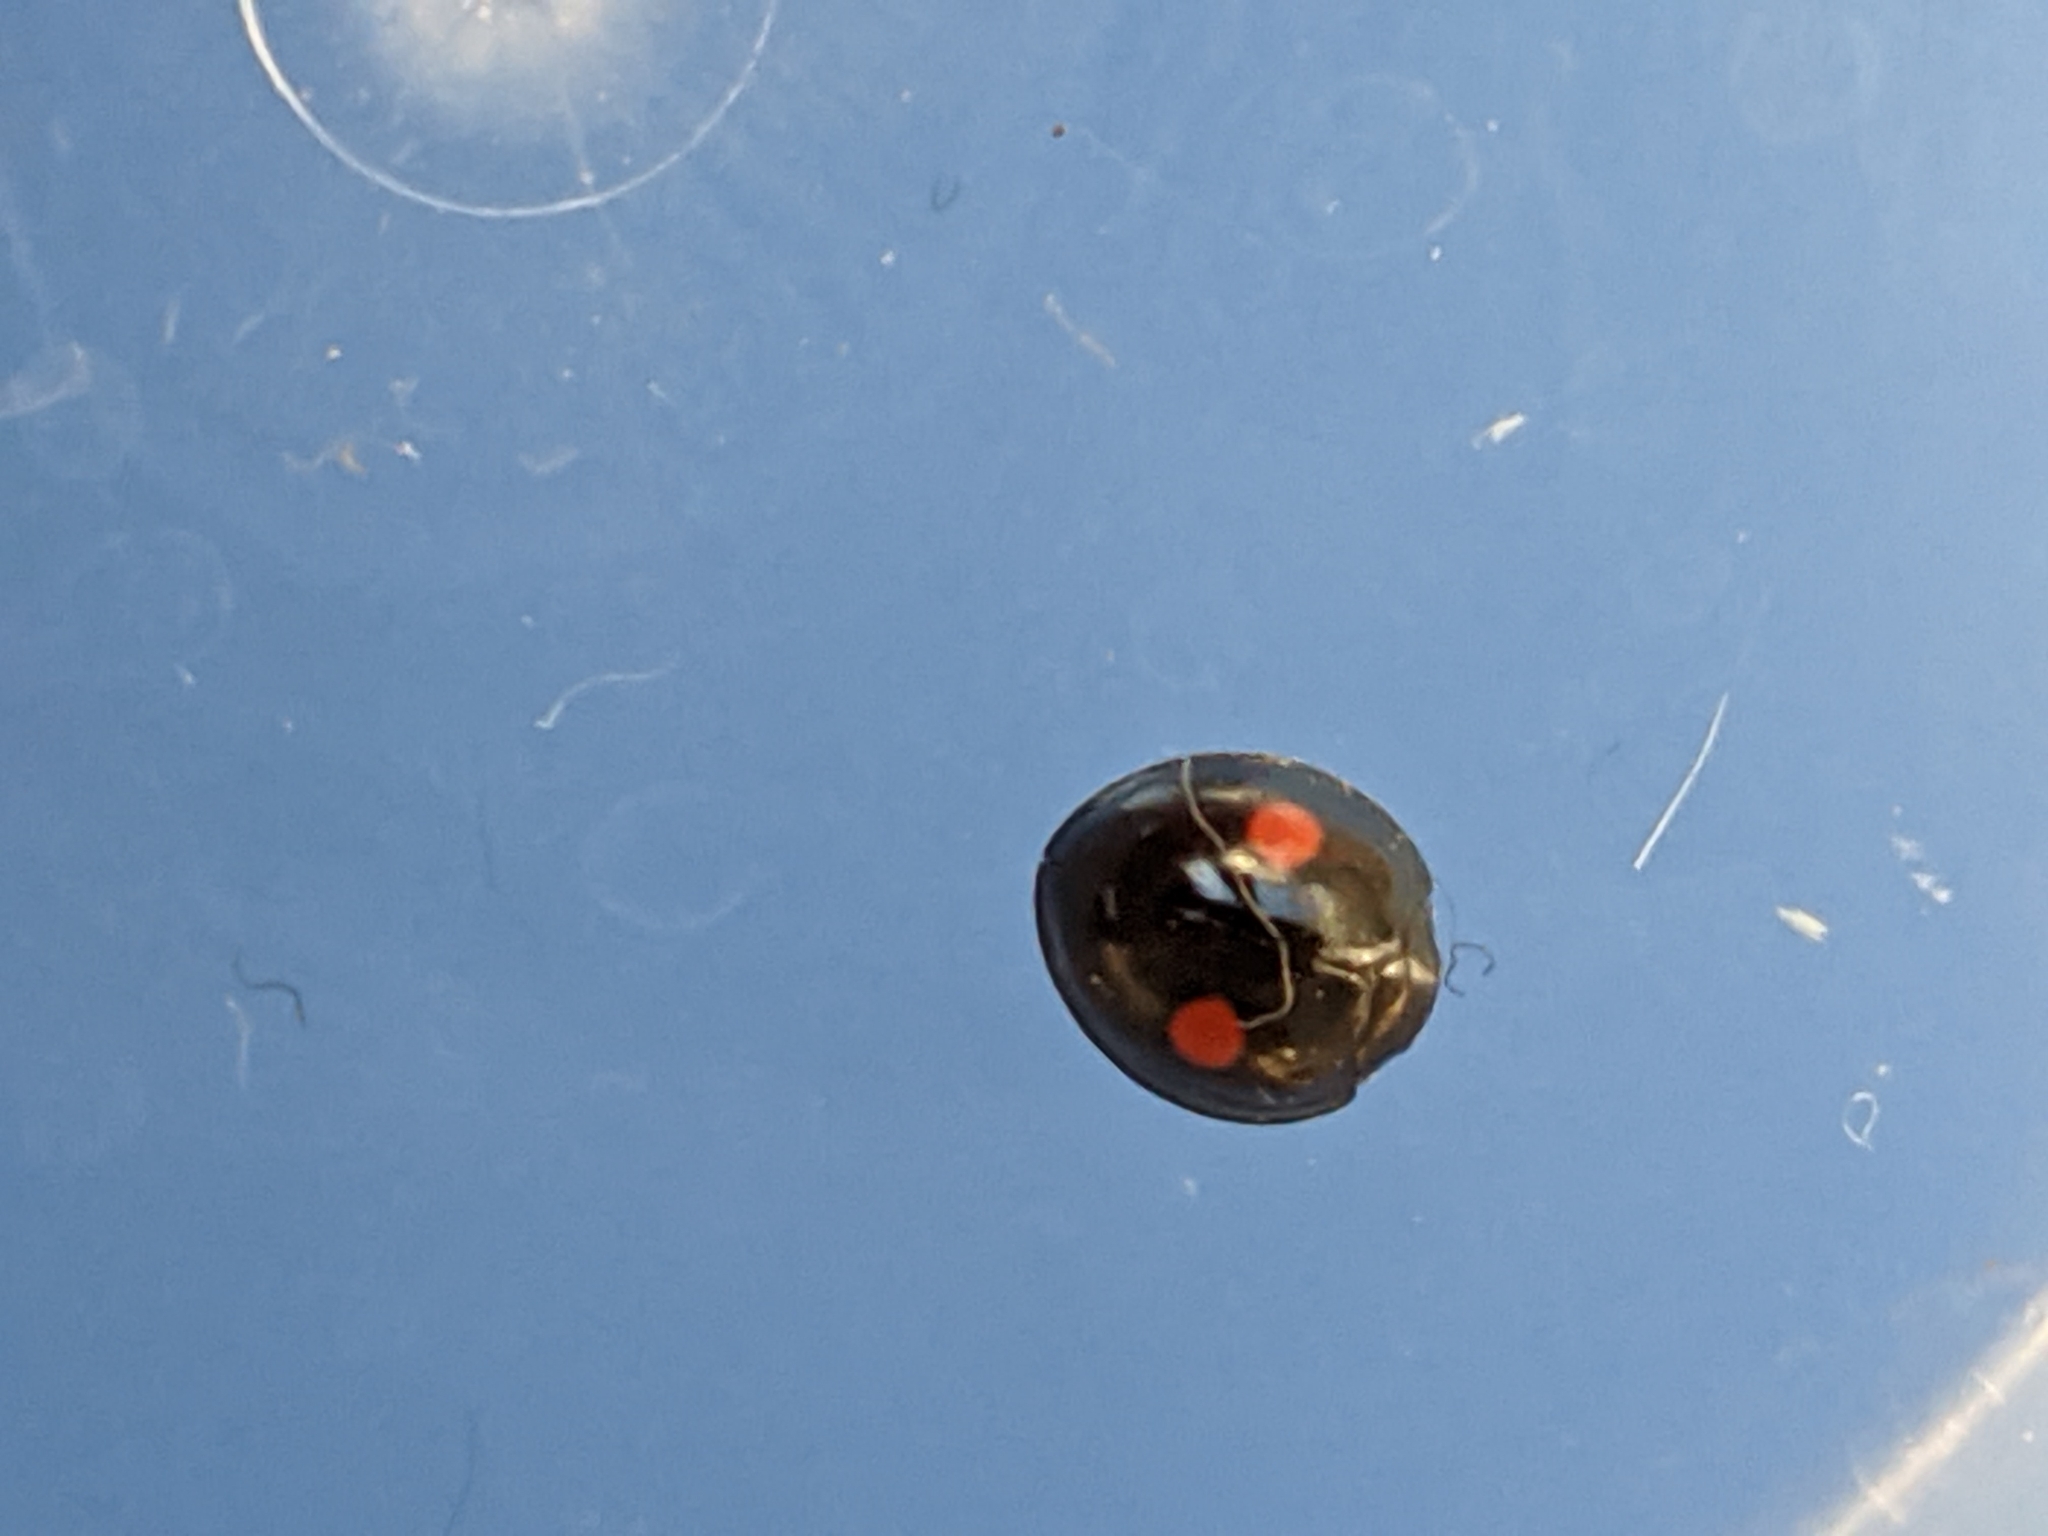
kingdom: Animalia
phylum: Arthropoda
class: Insecta
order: Coleoptera
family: Coccinellidae
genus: Chilocorus
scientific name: Chilocorus stigma
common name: Twicestabbed lady beetle
